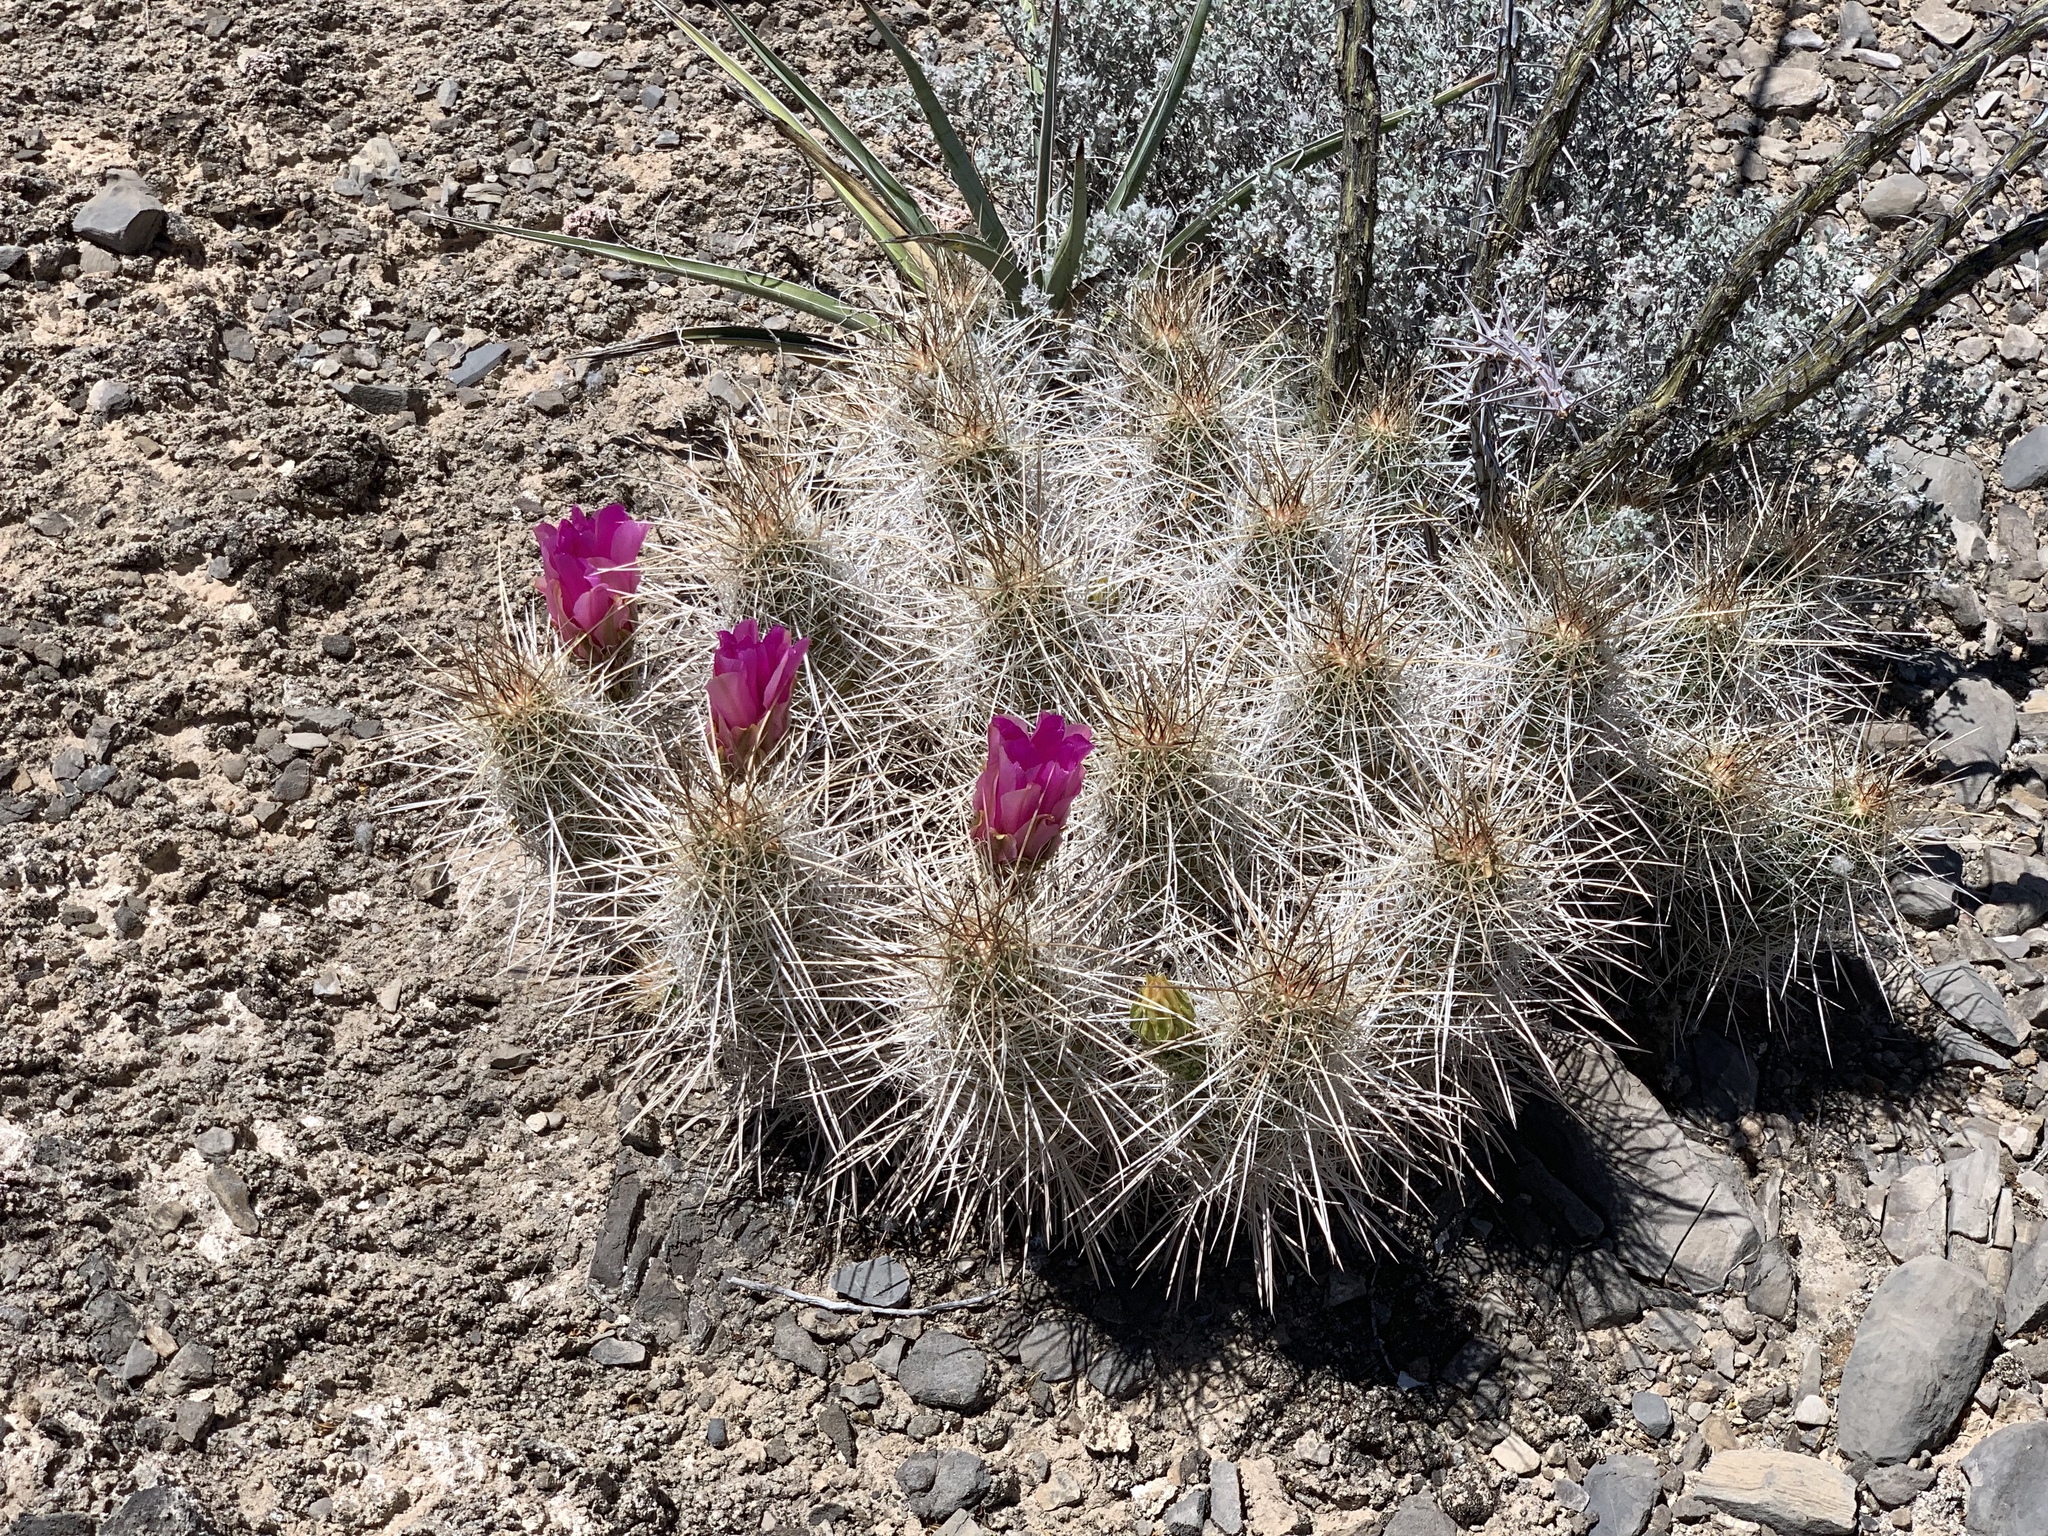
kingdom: Plantae
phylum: Tracheophyta
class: Magnoliopsida
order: Caryophyllales
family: Cactaceae
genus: Echinocereus
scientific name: Echinocereus stramineus
